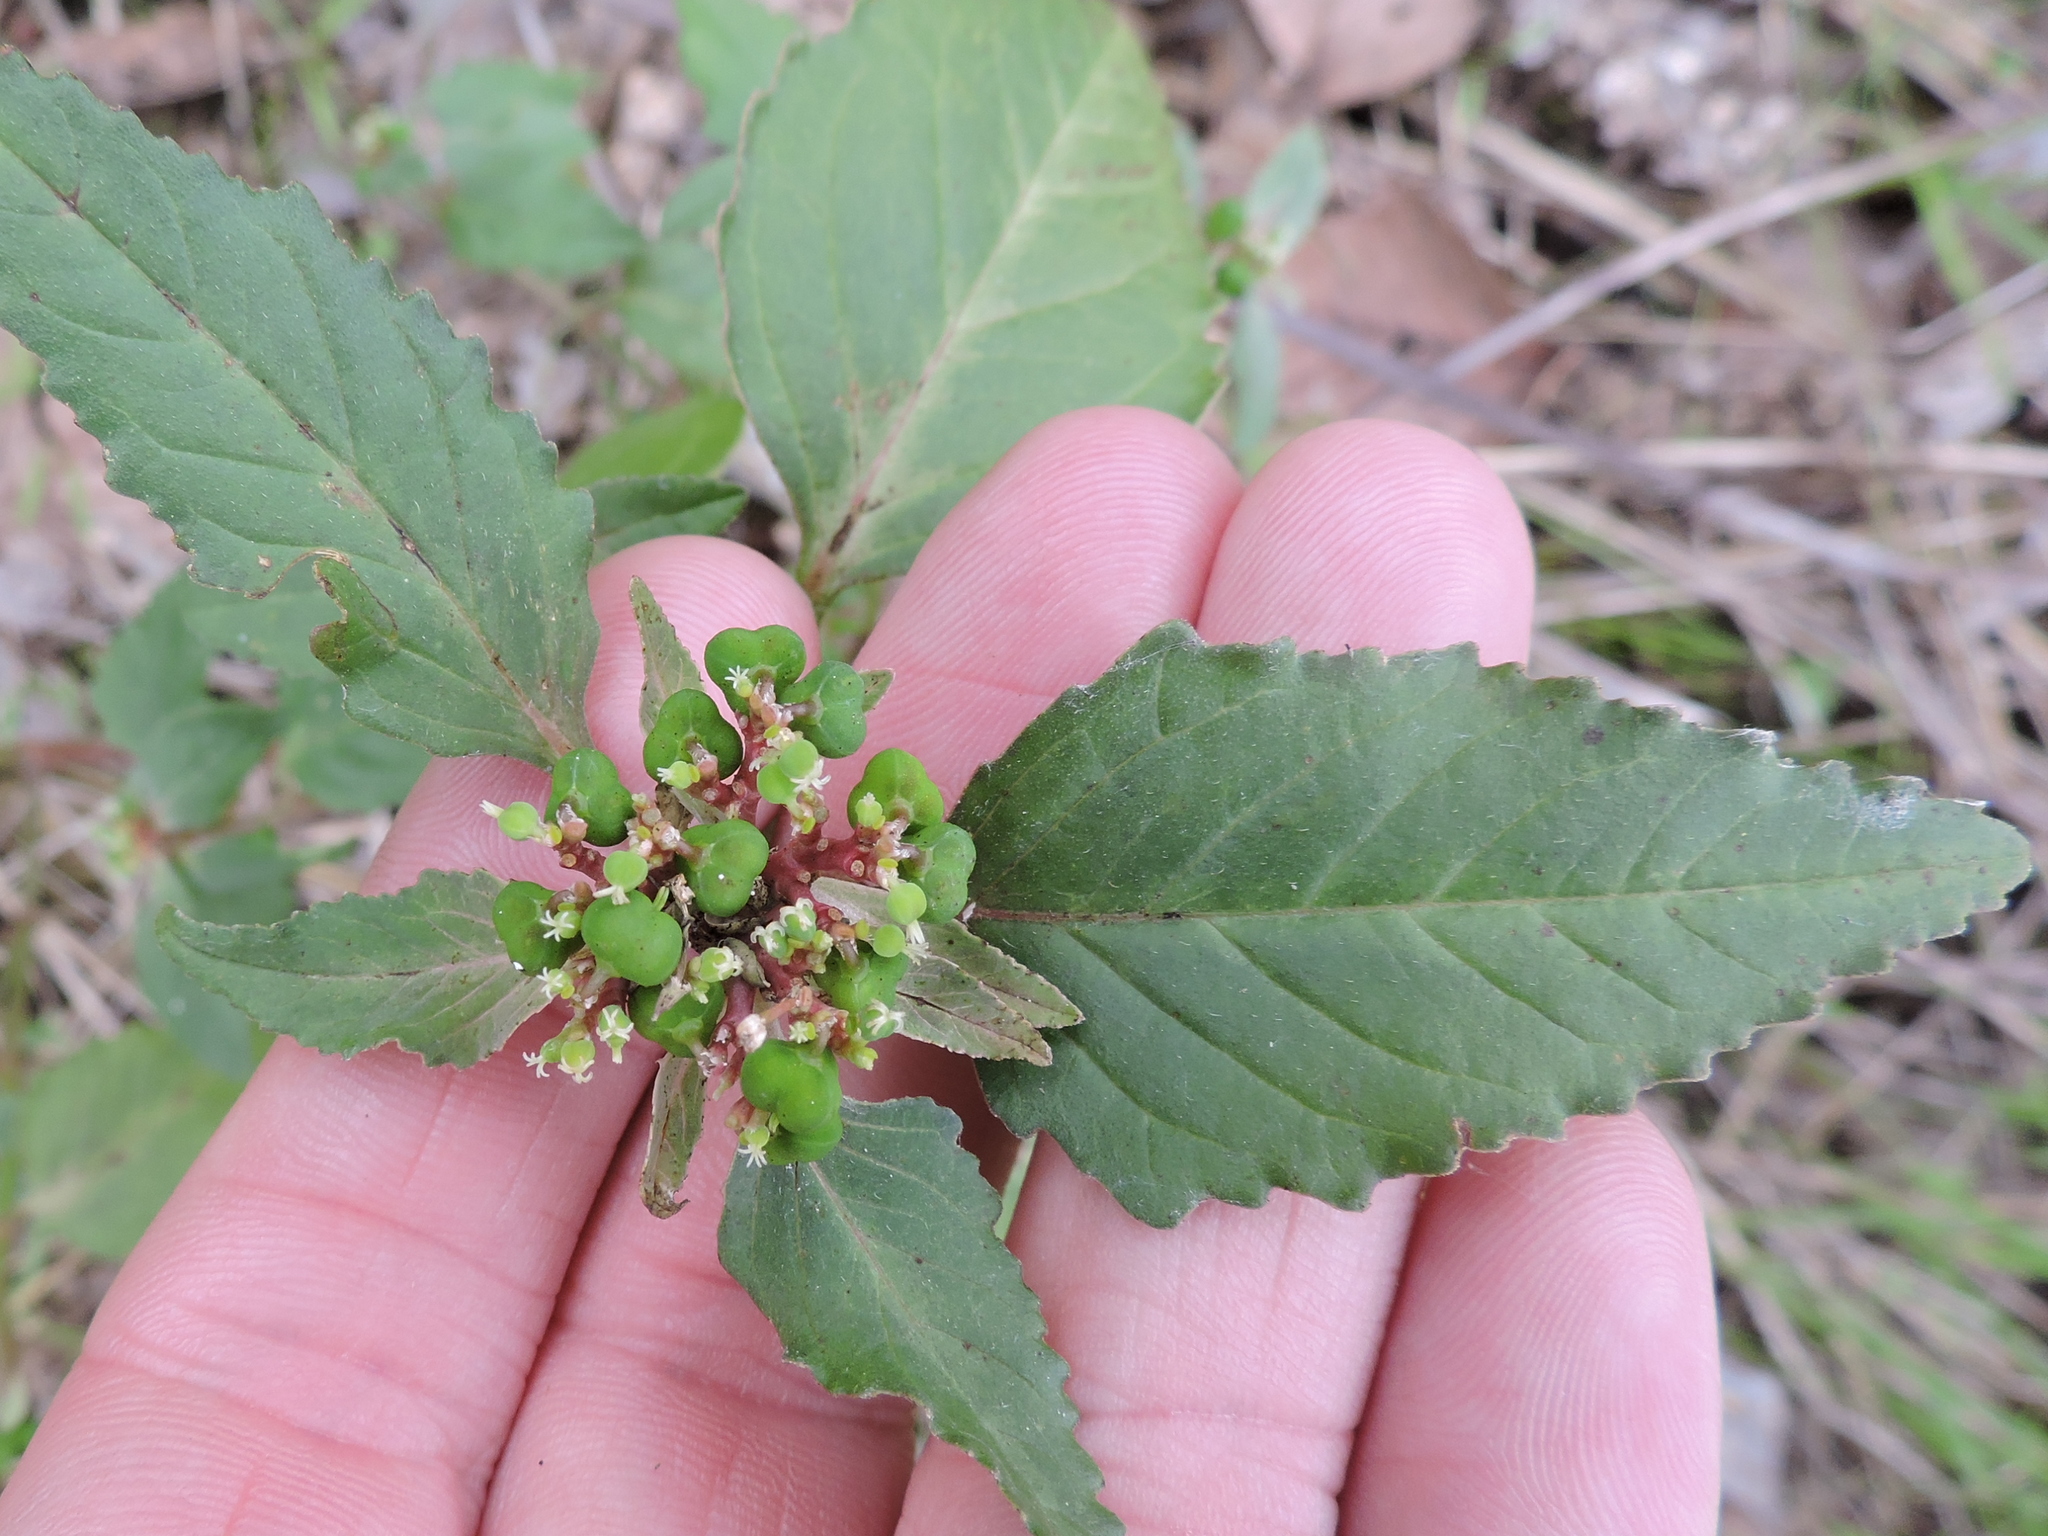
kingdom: Plantae
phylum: Tracheophyta
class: Magnoliopsida
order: Malpighiales
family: Euphorbiaceae
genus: Euphorbia
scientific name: Euphorbia dentata
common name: Dentate spurge
